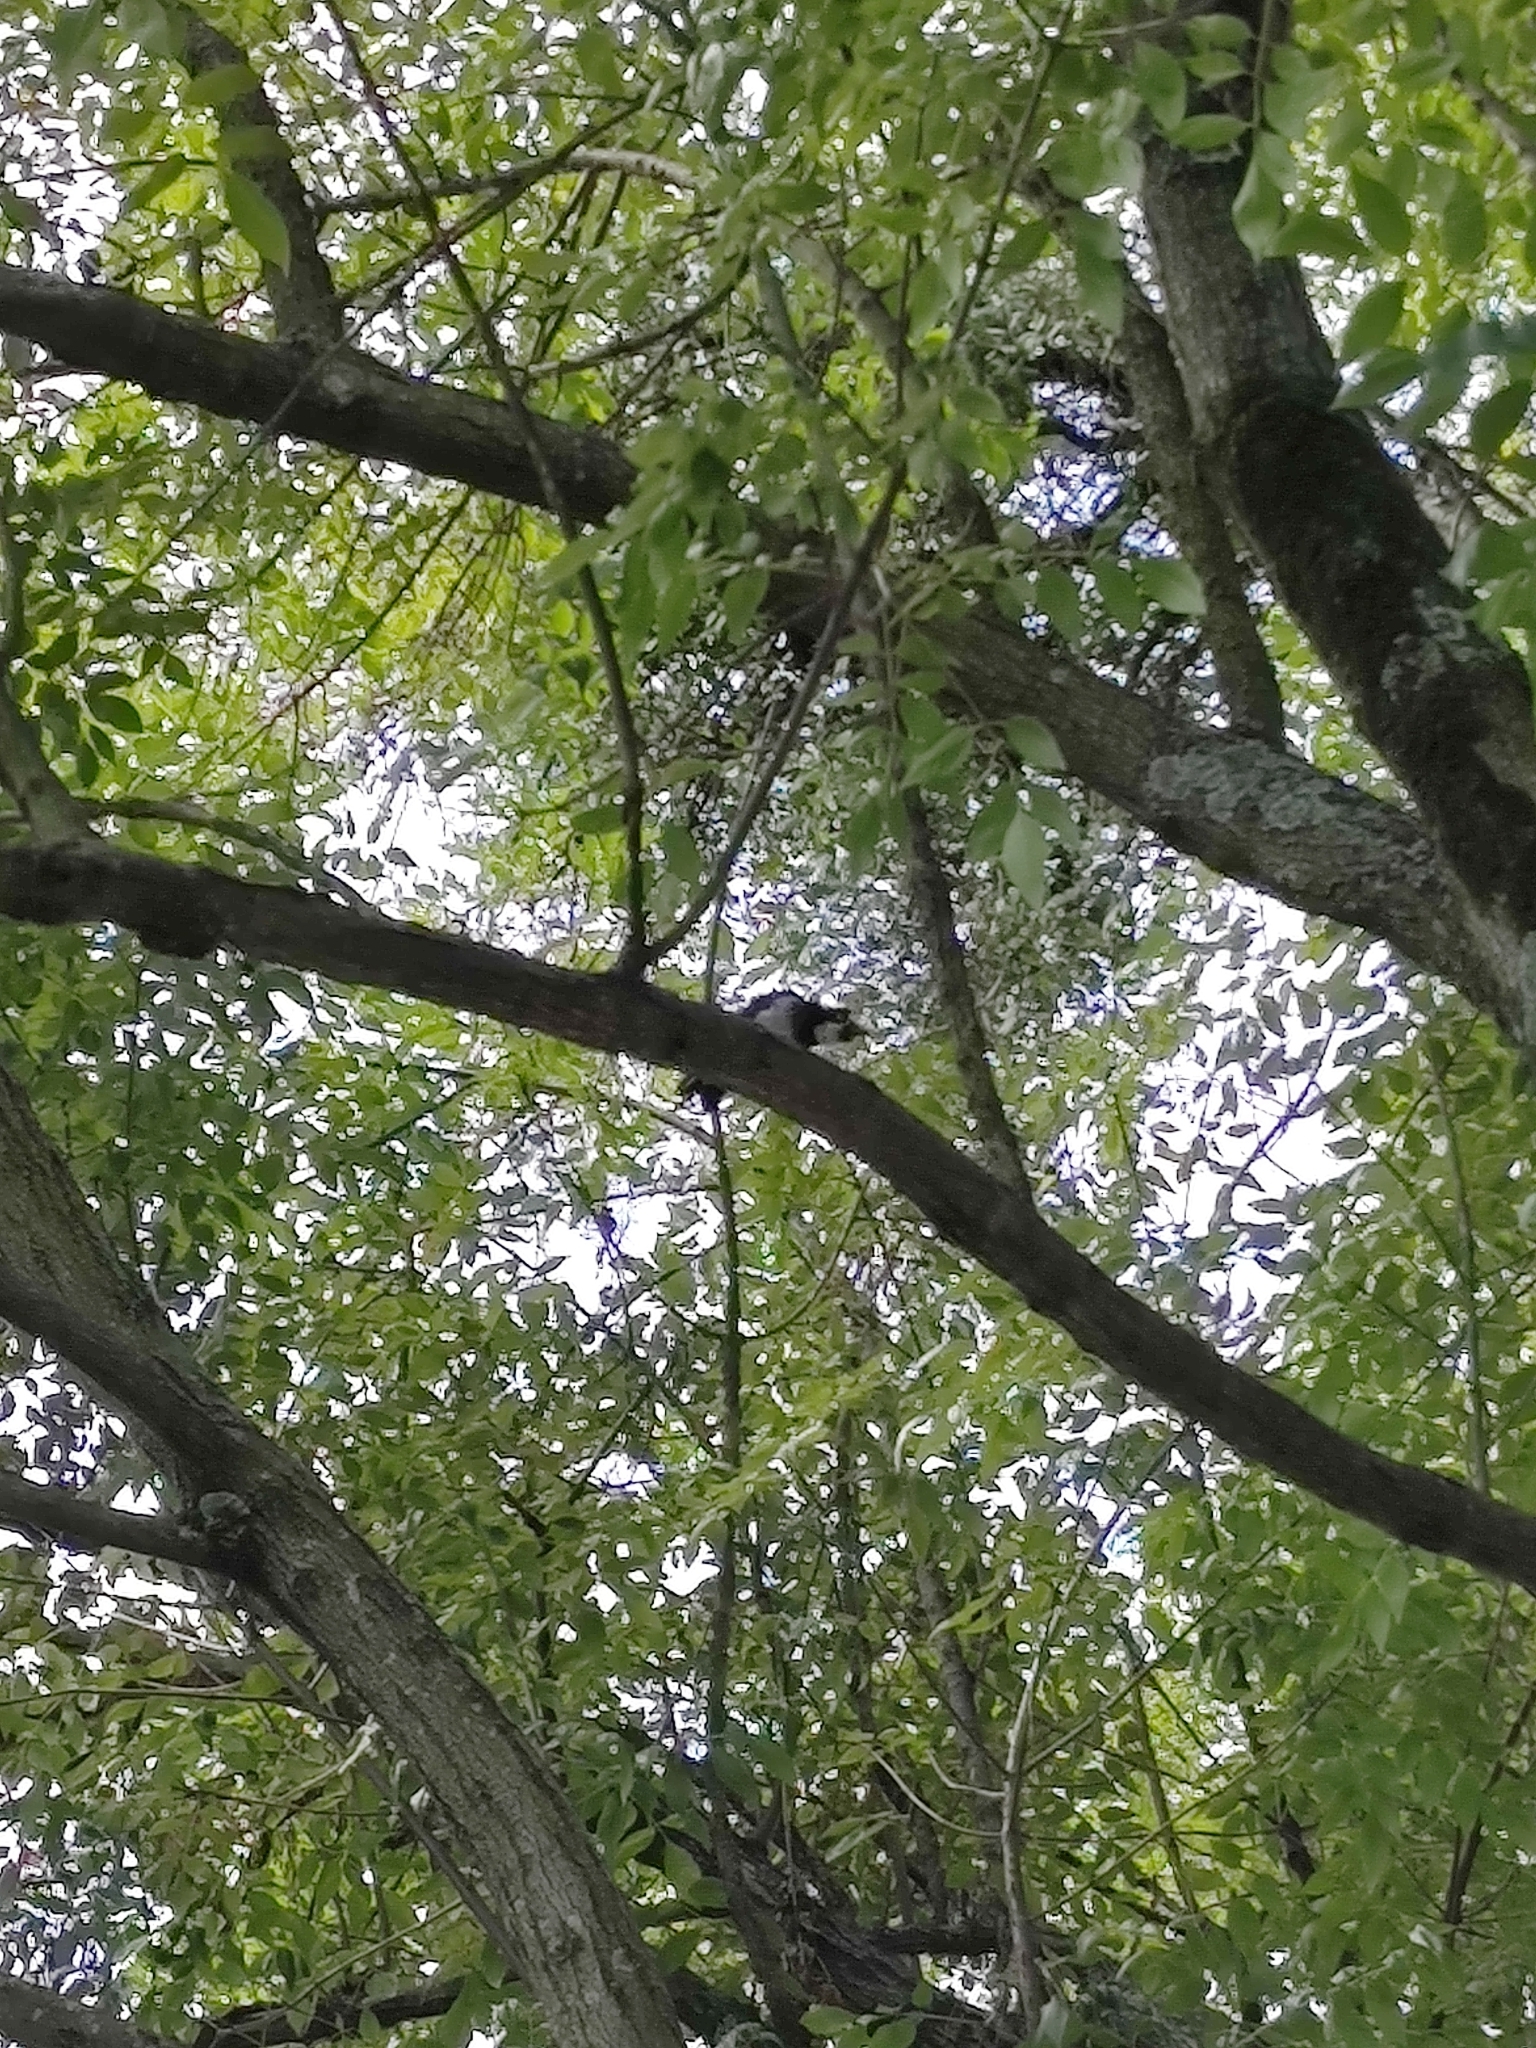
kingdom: Animalia
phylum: Chordata
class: Aves
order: Piciformes
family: Picidae
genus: Melanerpes
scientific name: Melanerpes formicivorus
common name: Acorn woodpecker
